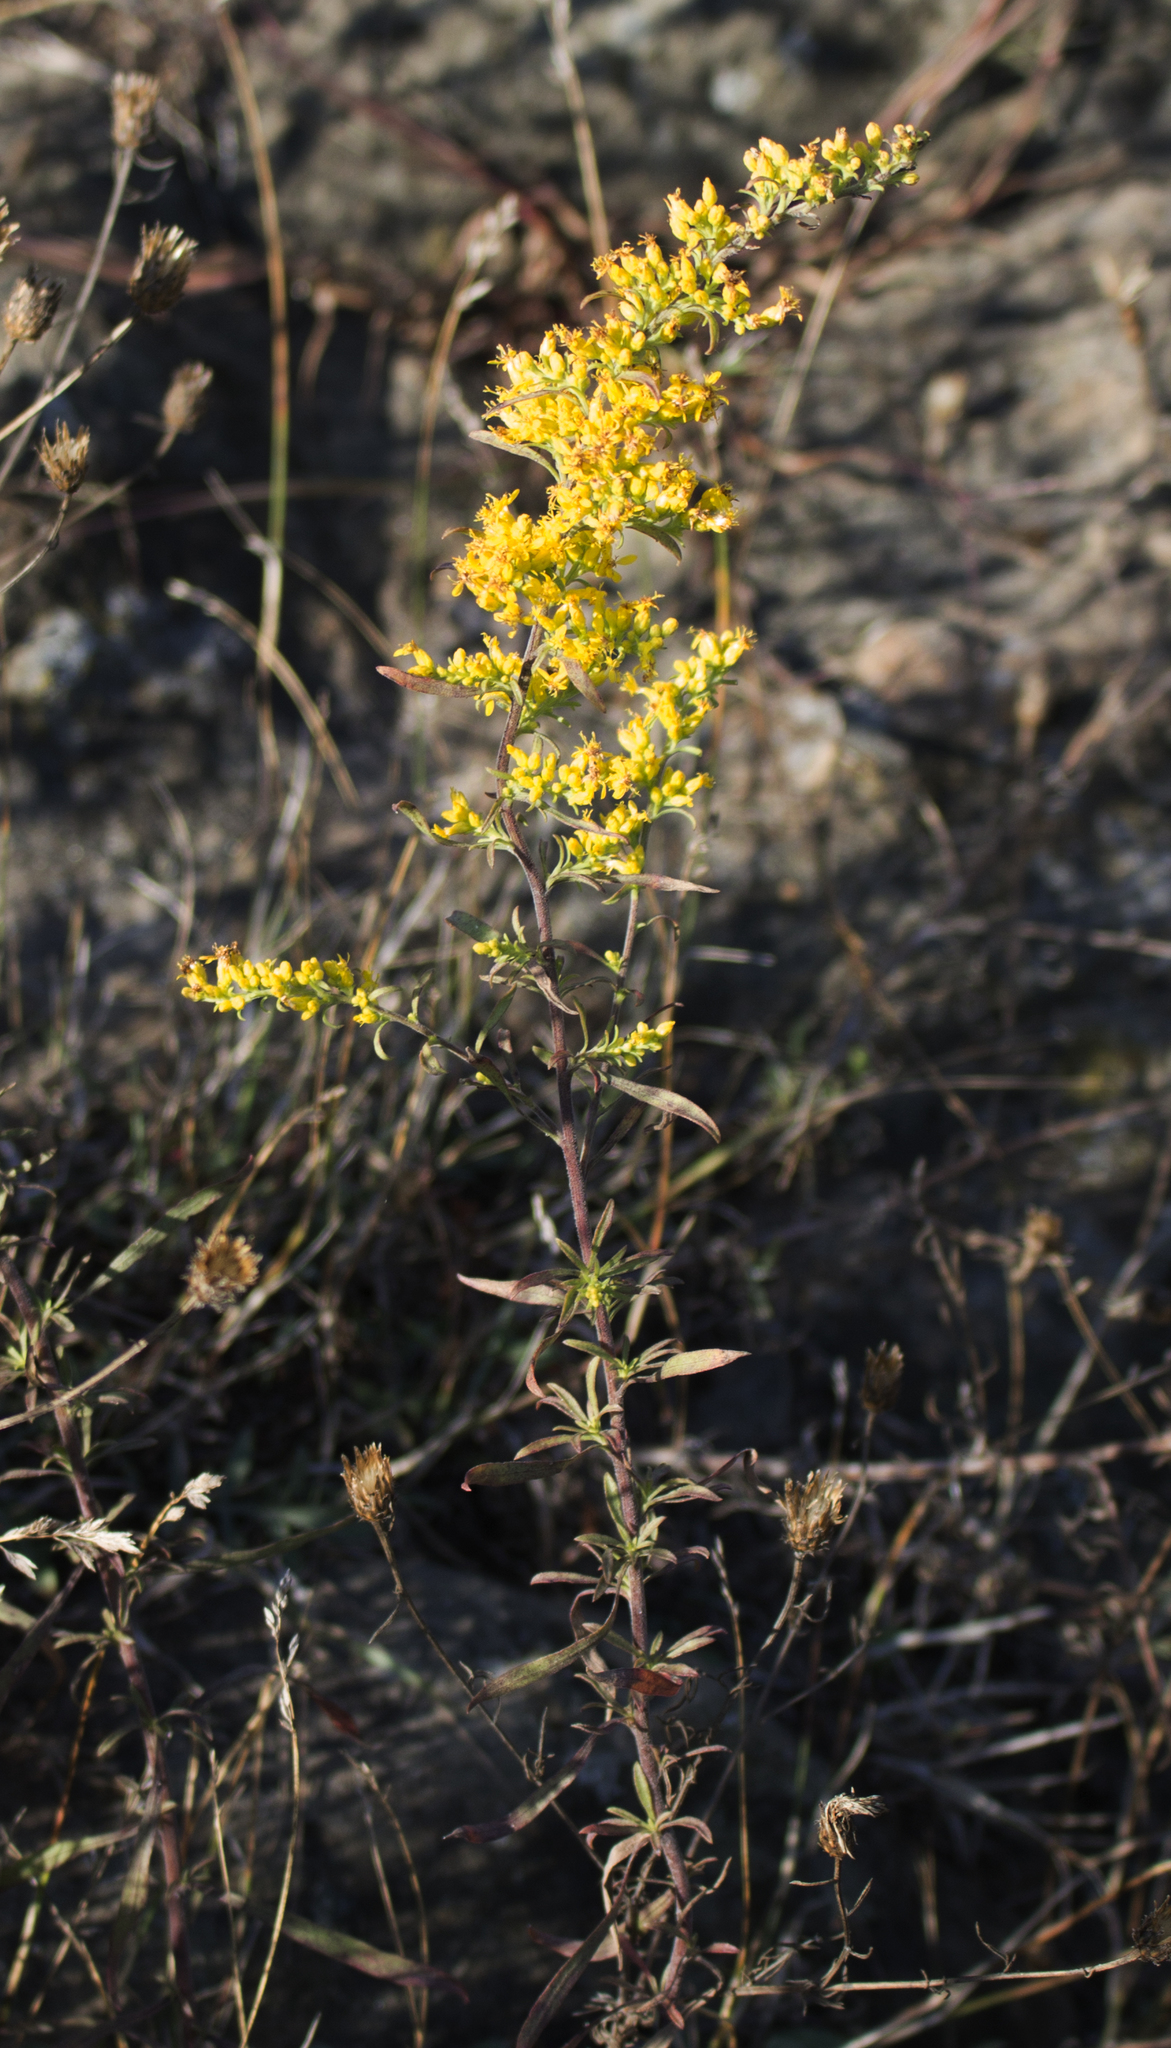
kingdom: Plantae
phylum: Tracheophyta
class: Magnoliopsida
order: Asterales
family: Asteraceae
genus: Solidago
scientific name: Solidago nemoralis
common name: Grey goldenrod
